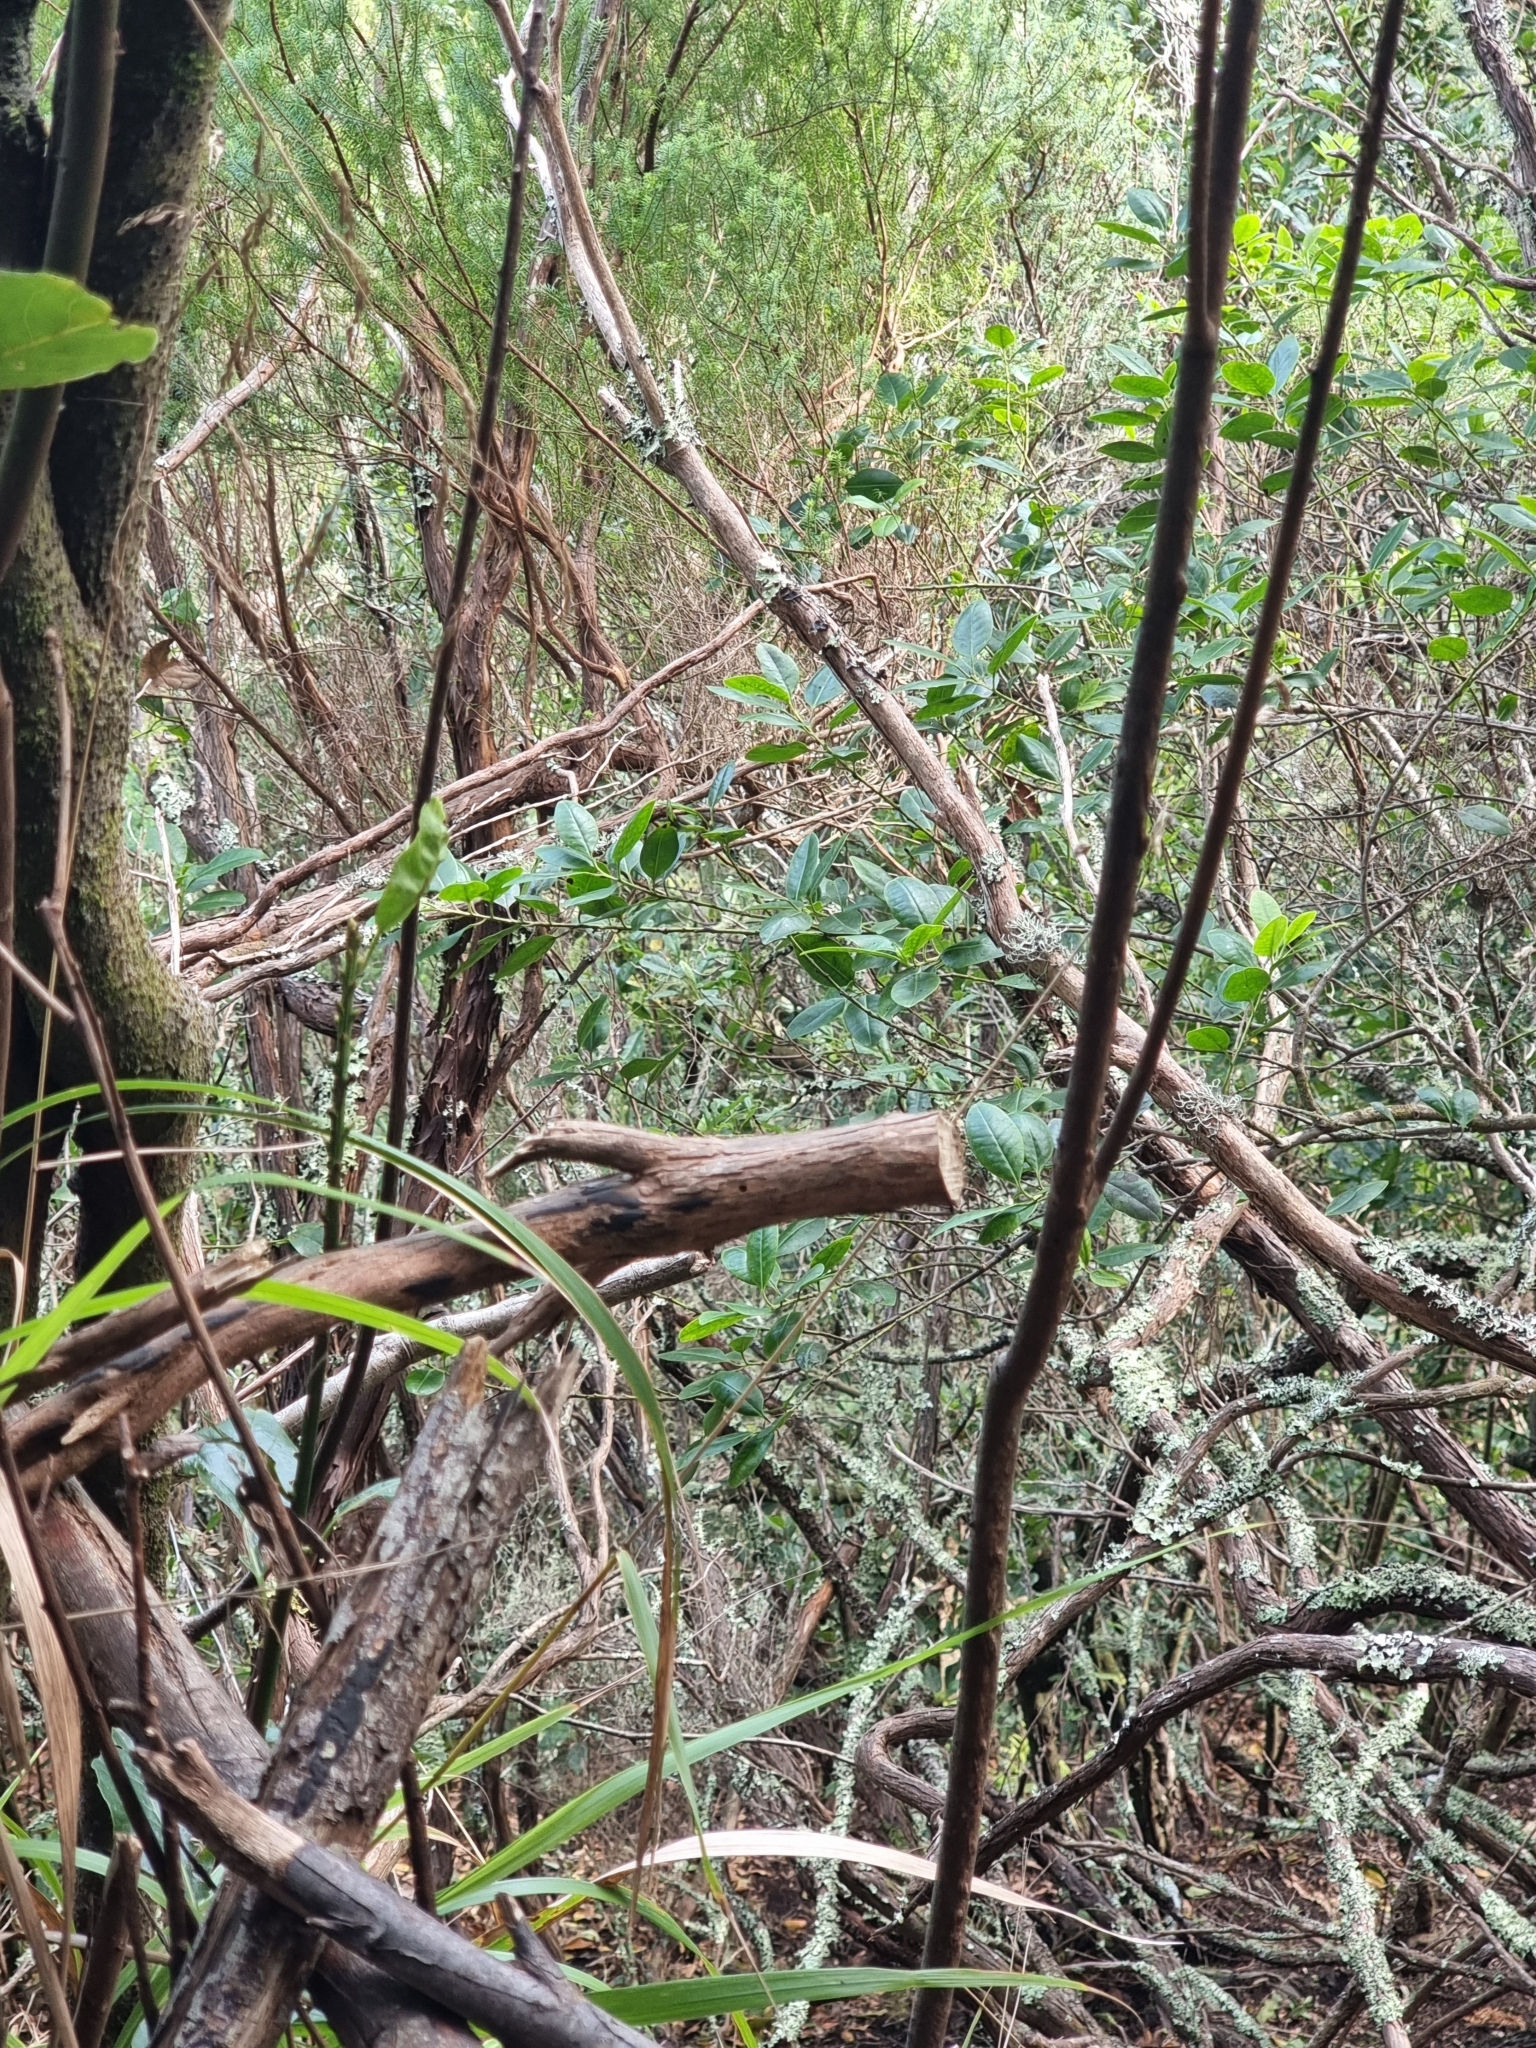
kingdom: Plantae
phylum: Tracheophyta
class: Magnoliopsida
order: Aquifoliales
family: Aquifoliaceae
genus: Ilex
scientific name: Ilex canariensis
